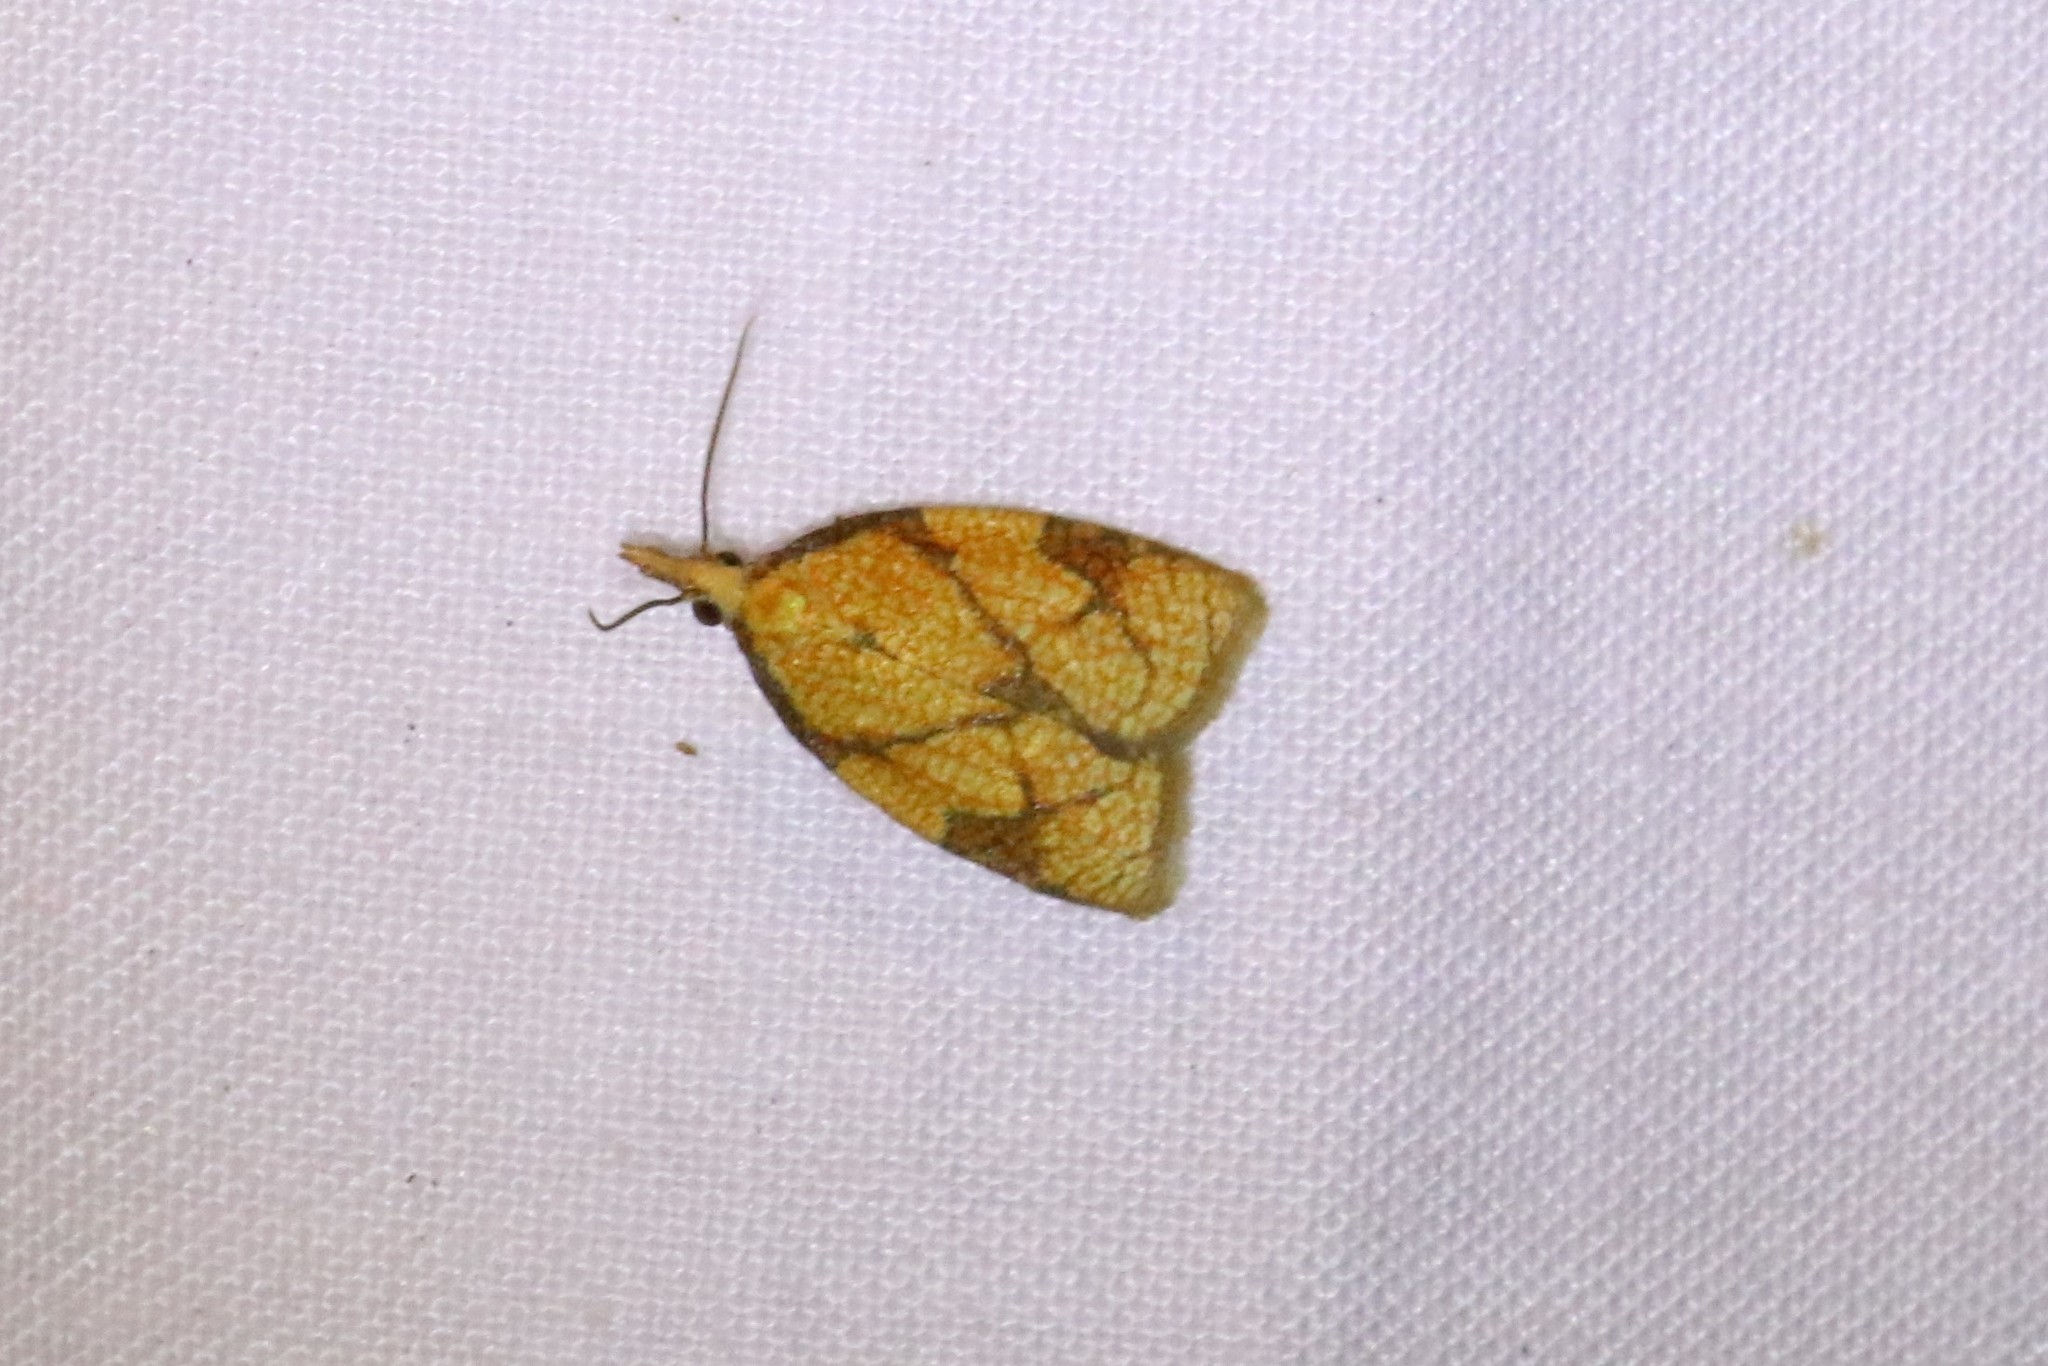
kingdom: Animalia
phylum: Arthropoda
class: Insecta
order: Lepidoptera
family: Tortricidae
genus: Cenopis
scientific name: Cenopis reticulatana
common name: Reticulated fruitworm moth
